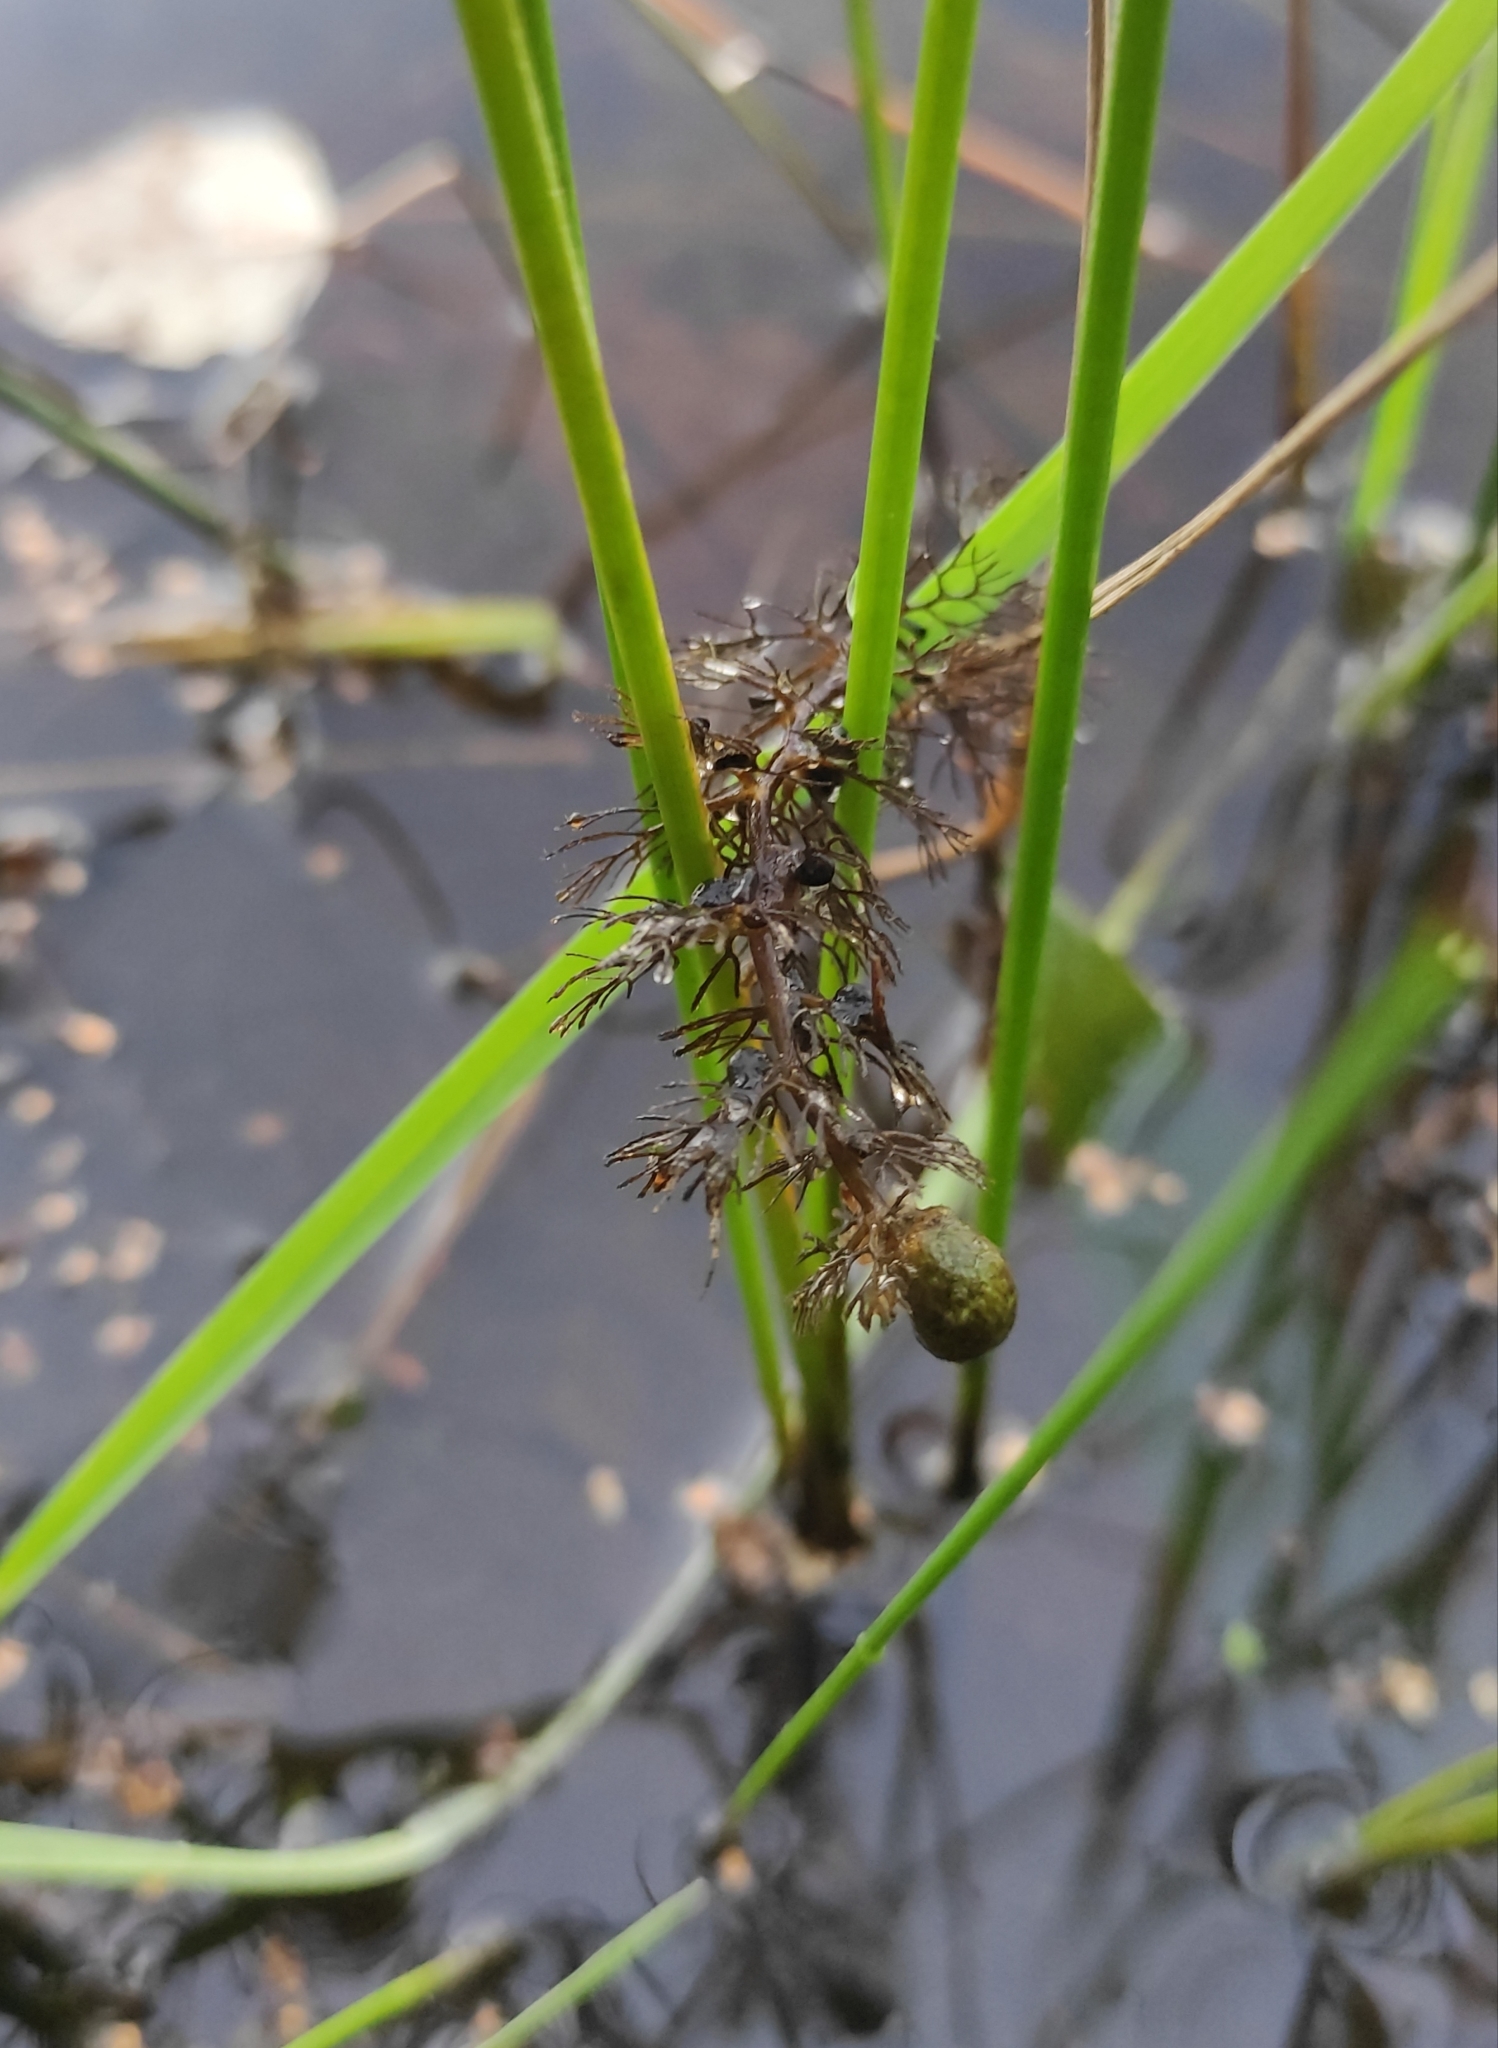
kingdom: Plantae
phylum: Tracheophyta
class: Magnoliopsida
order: Lamiales
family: Lentibulariaceae
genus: Utricularia
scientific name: Utricularia
